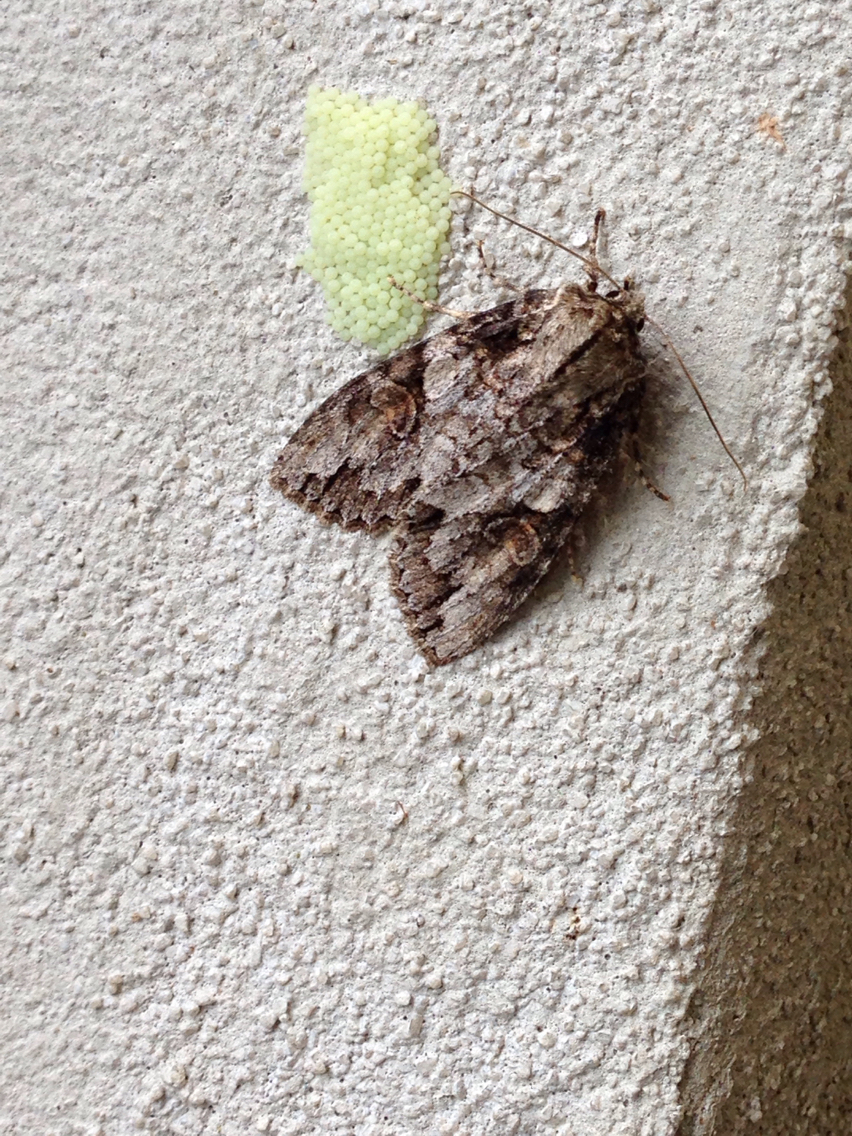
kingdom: Animalia
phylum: Arthropoda
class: Insecta
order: Lepidoptera
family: Noctuidae
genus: Achatia
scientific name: Achatia latex
